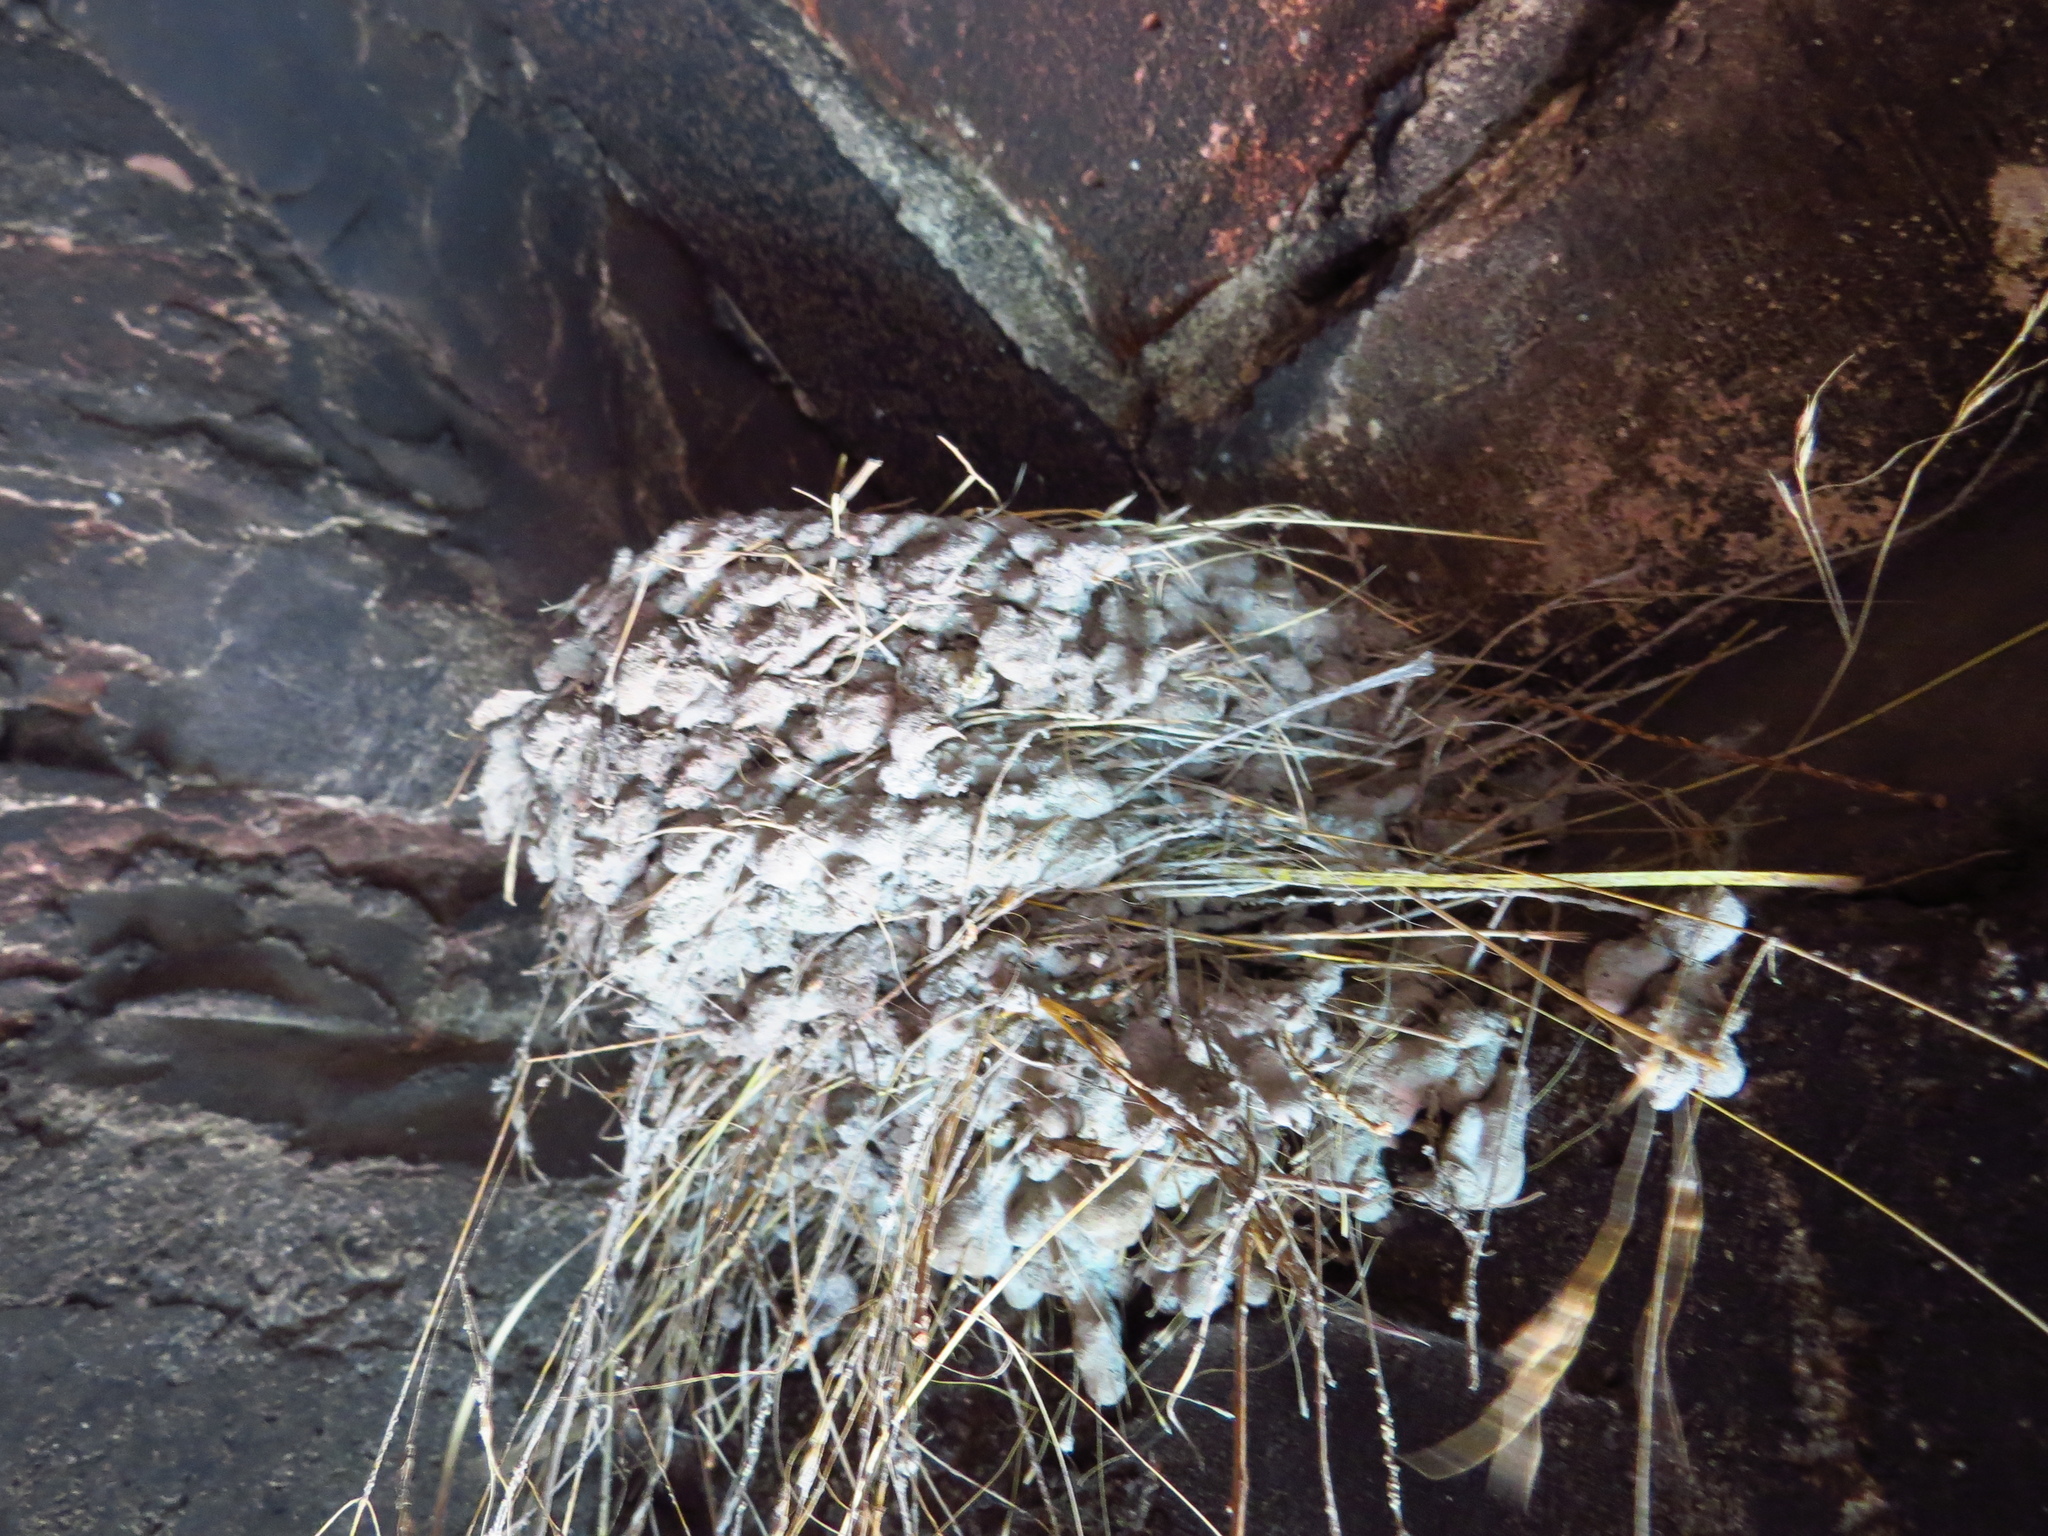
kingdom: Animalia
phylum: Chordata
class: Aves
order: Passeriformes
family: Hirundinidae
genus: Hirundo
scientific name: Hirundo rustica
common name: Barn swallow
